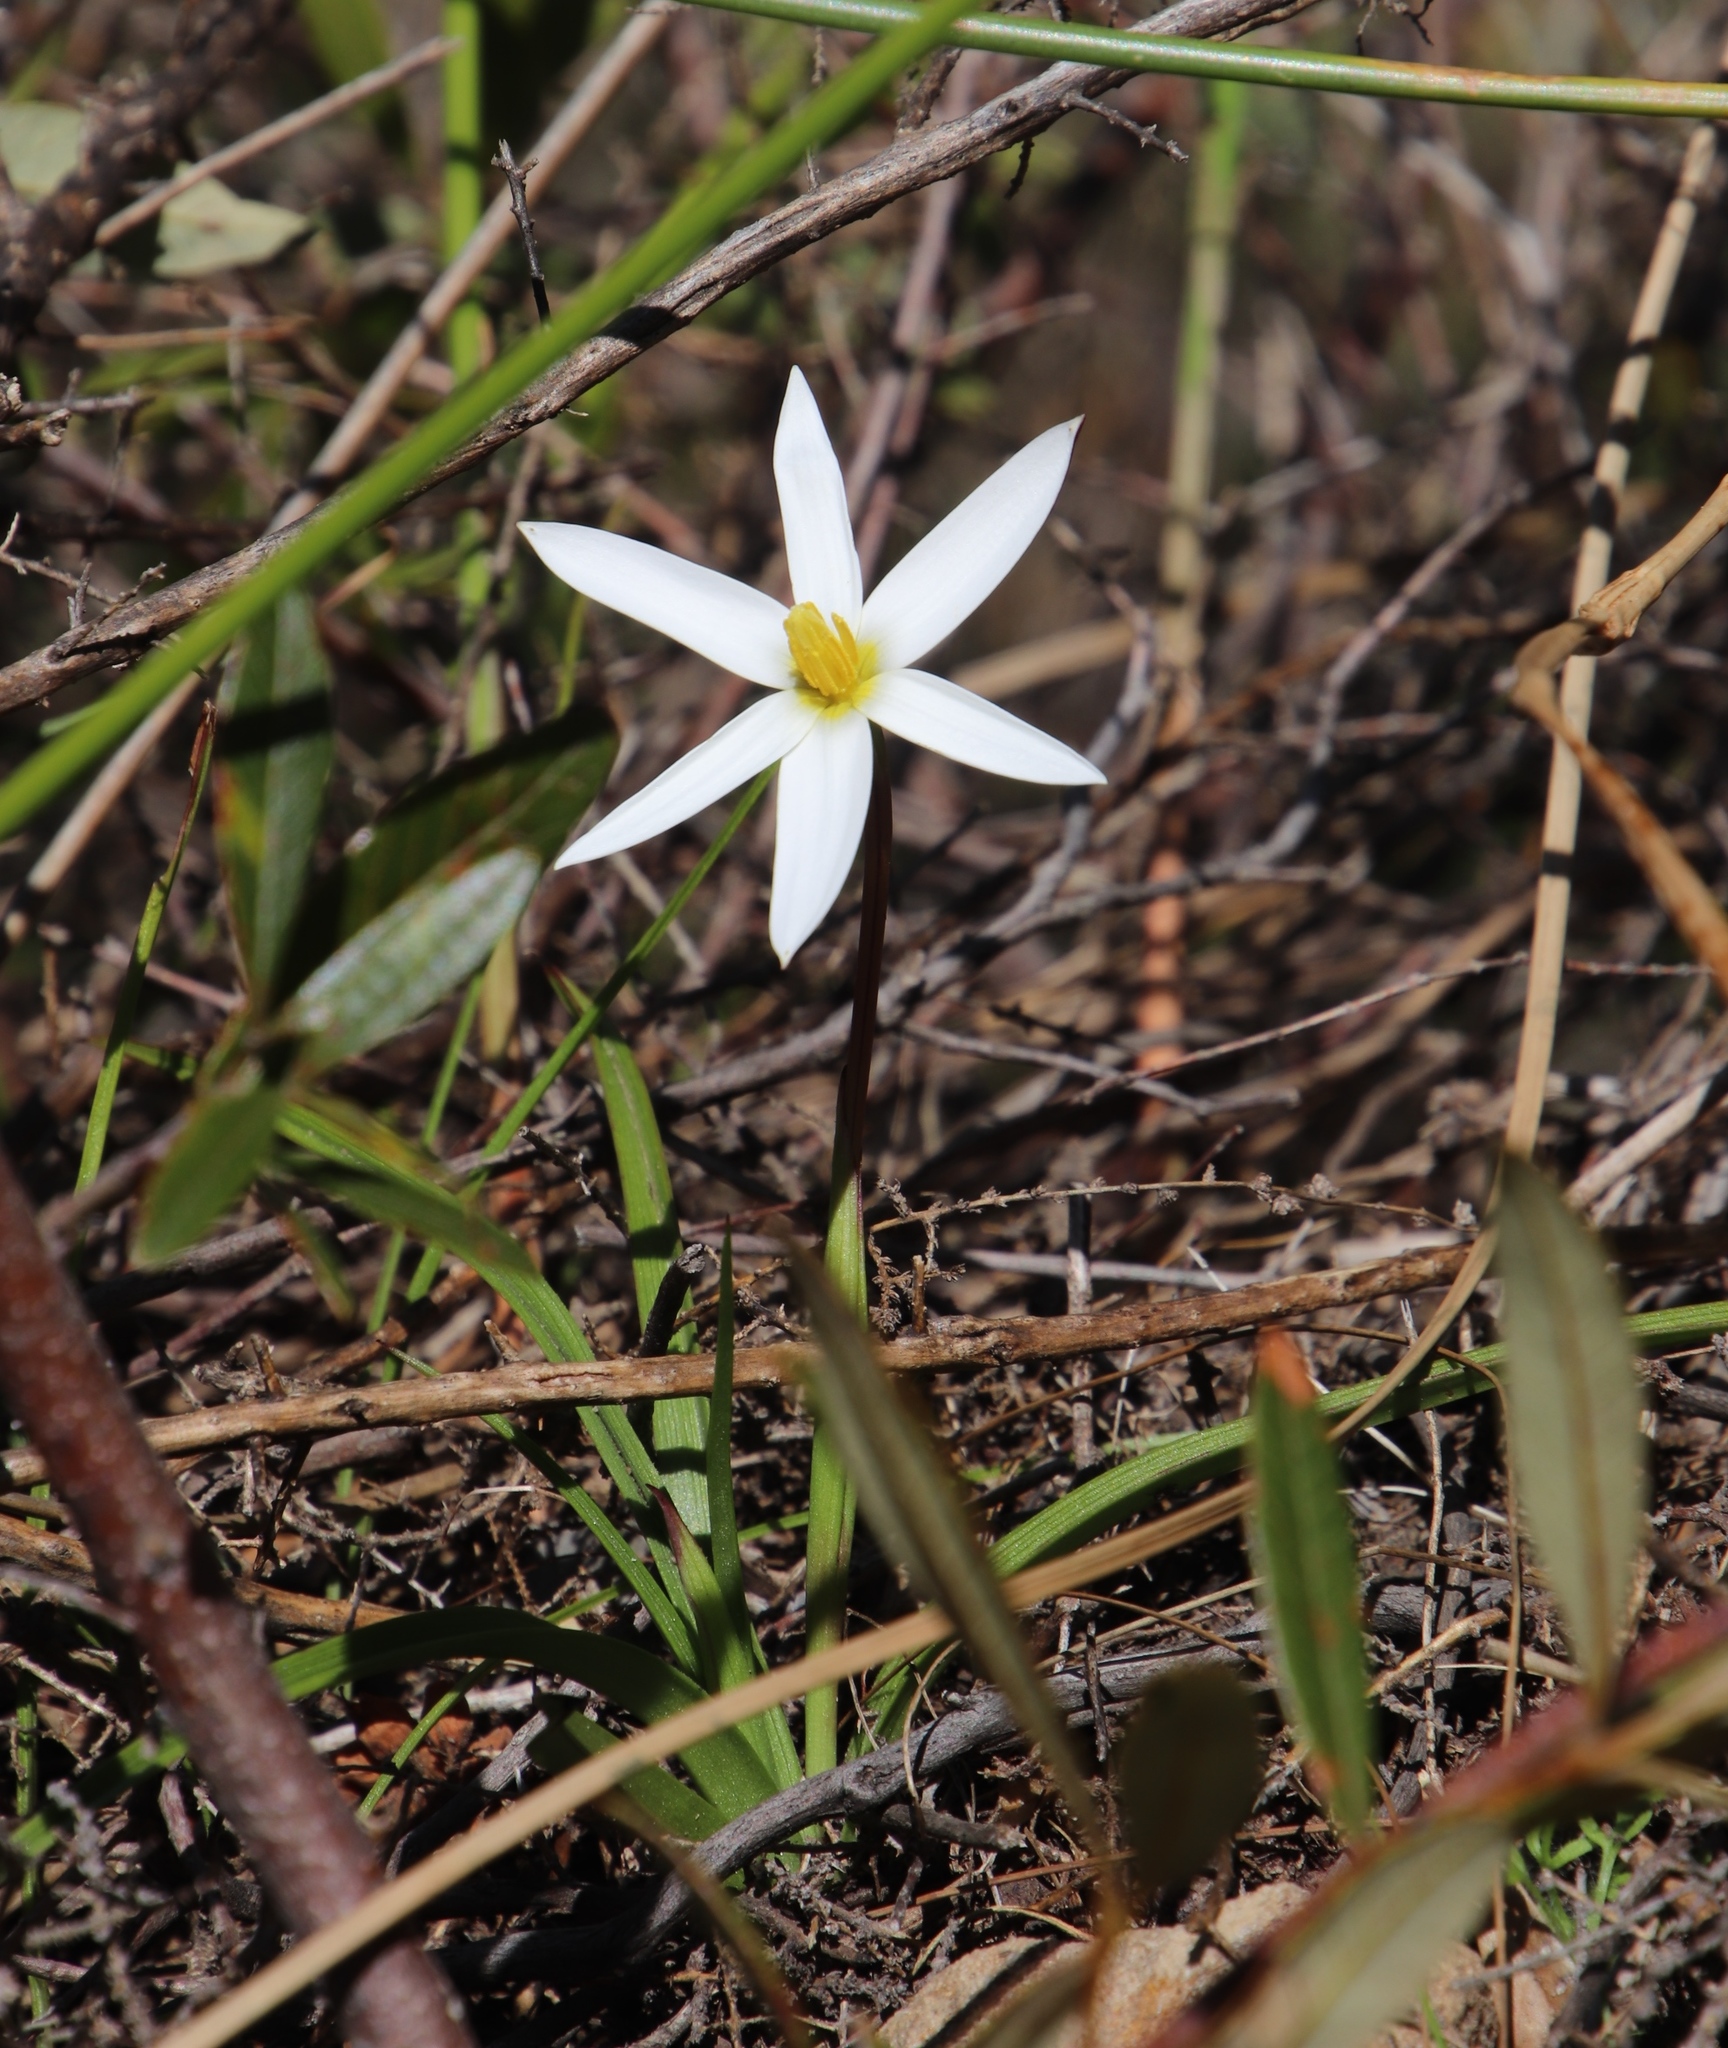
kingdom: Plantae
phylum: Tracheophyta
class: Liliopsida
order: Asparagales
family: Hypoxidaceae
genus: Pauridia
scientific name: Pauridia capensis
